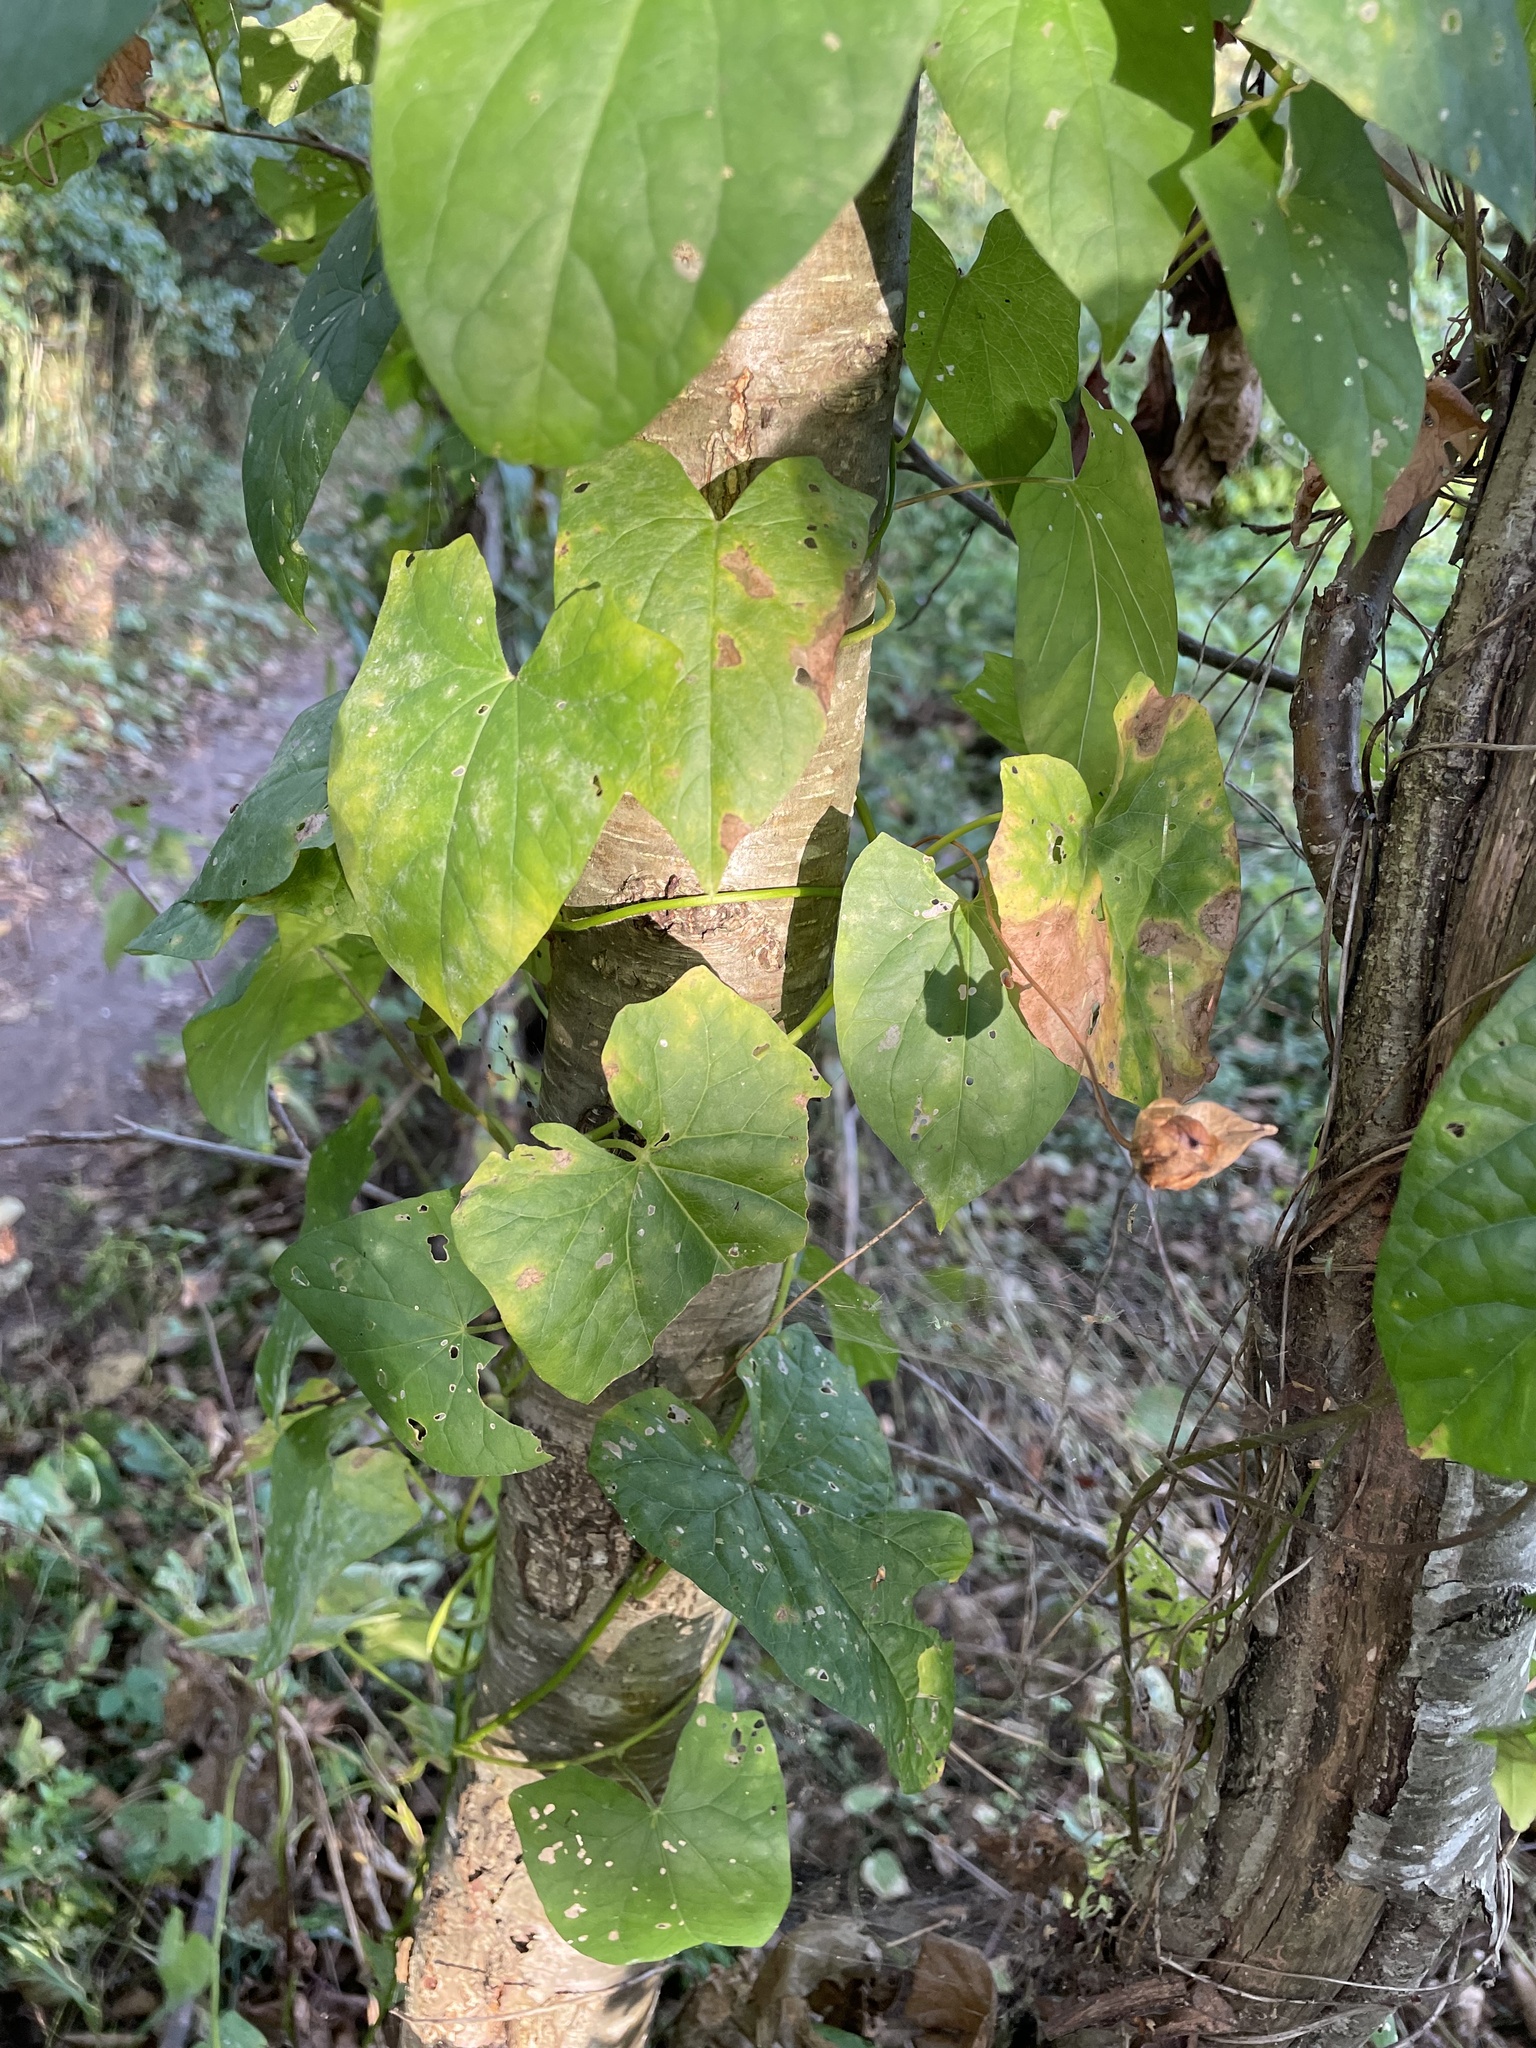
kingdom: Plantae
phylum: Tracheophyta
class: Magnoliopsida
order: Solanales
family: Convolvulaceae
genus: Calystegia
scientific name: Calystegia sepium
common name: Hedge bindweed
